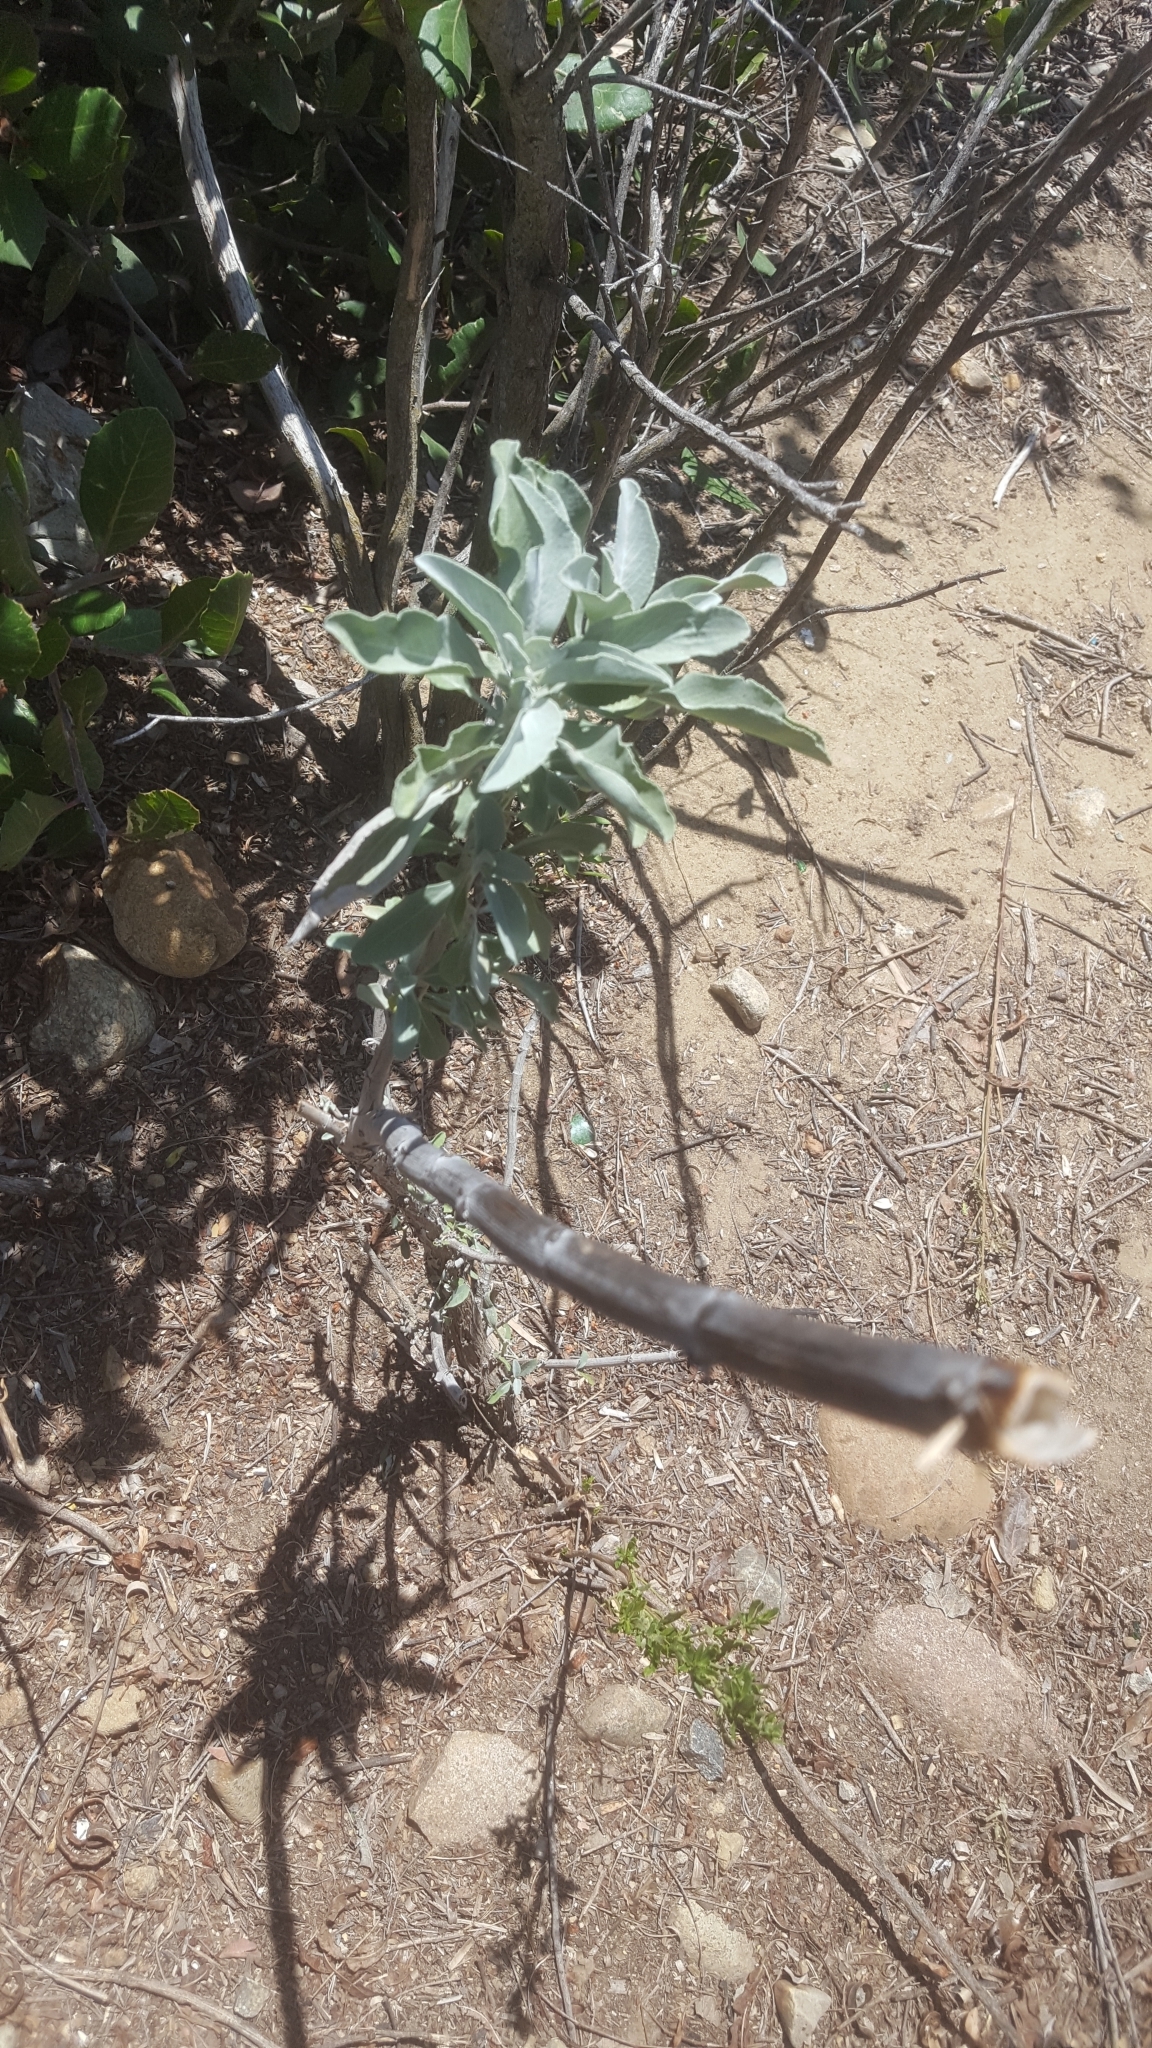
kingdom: Plantae
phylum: Tracheophyta
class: Magnoliopsida
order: Lamiales
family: Lamiaceae
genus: Salvia
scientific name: Salvia apiana
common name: White sage
